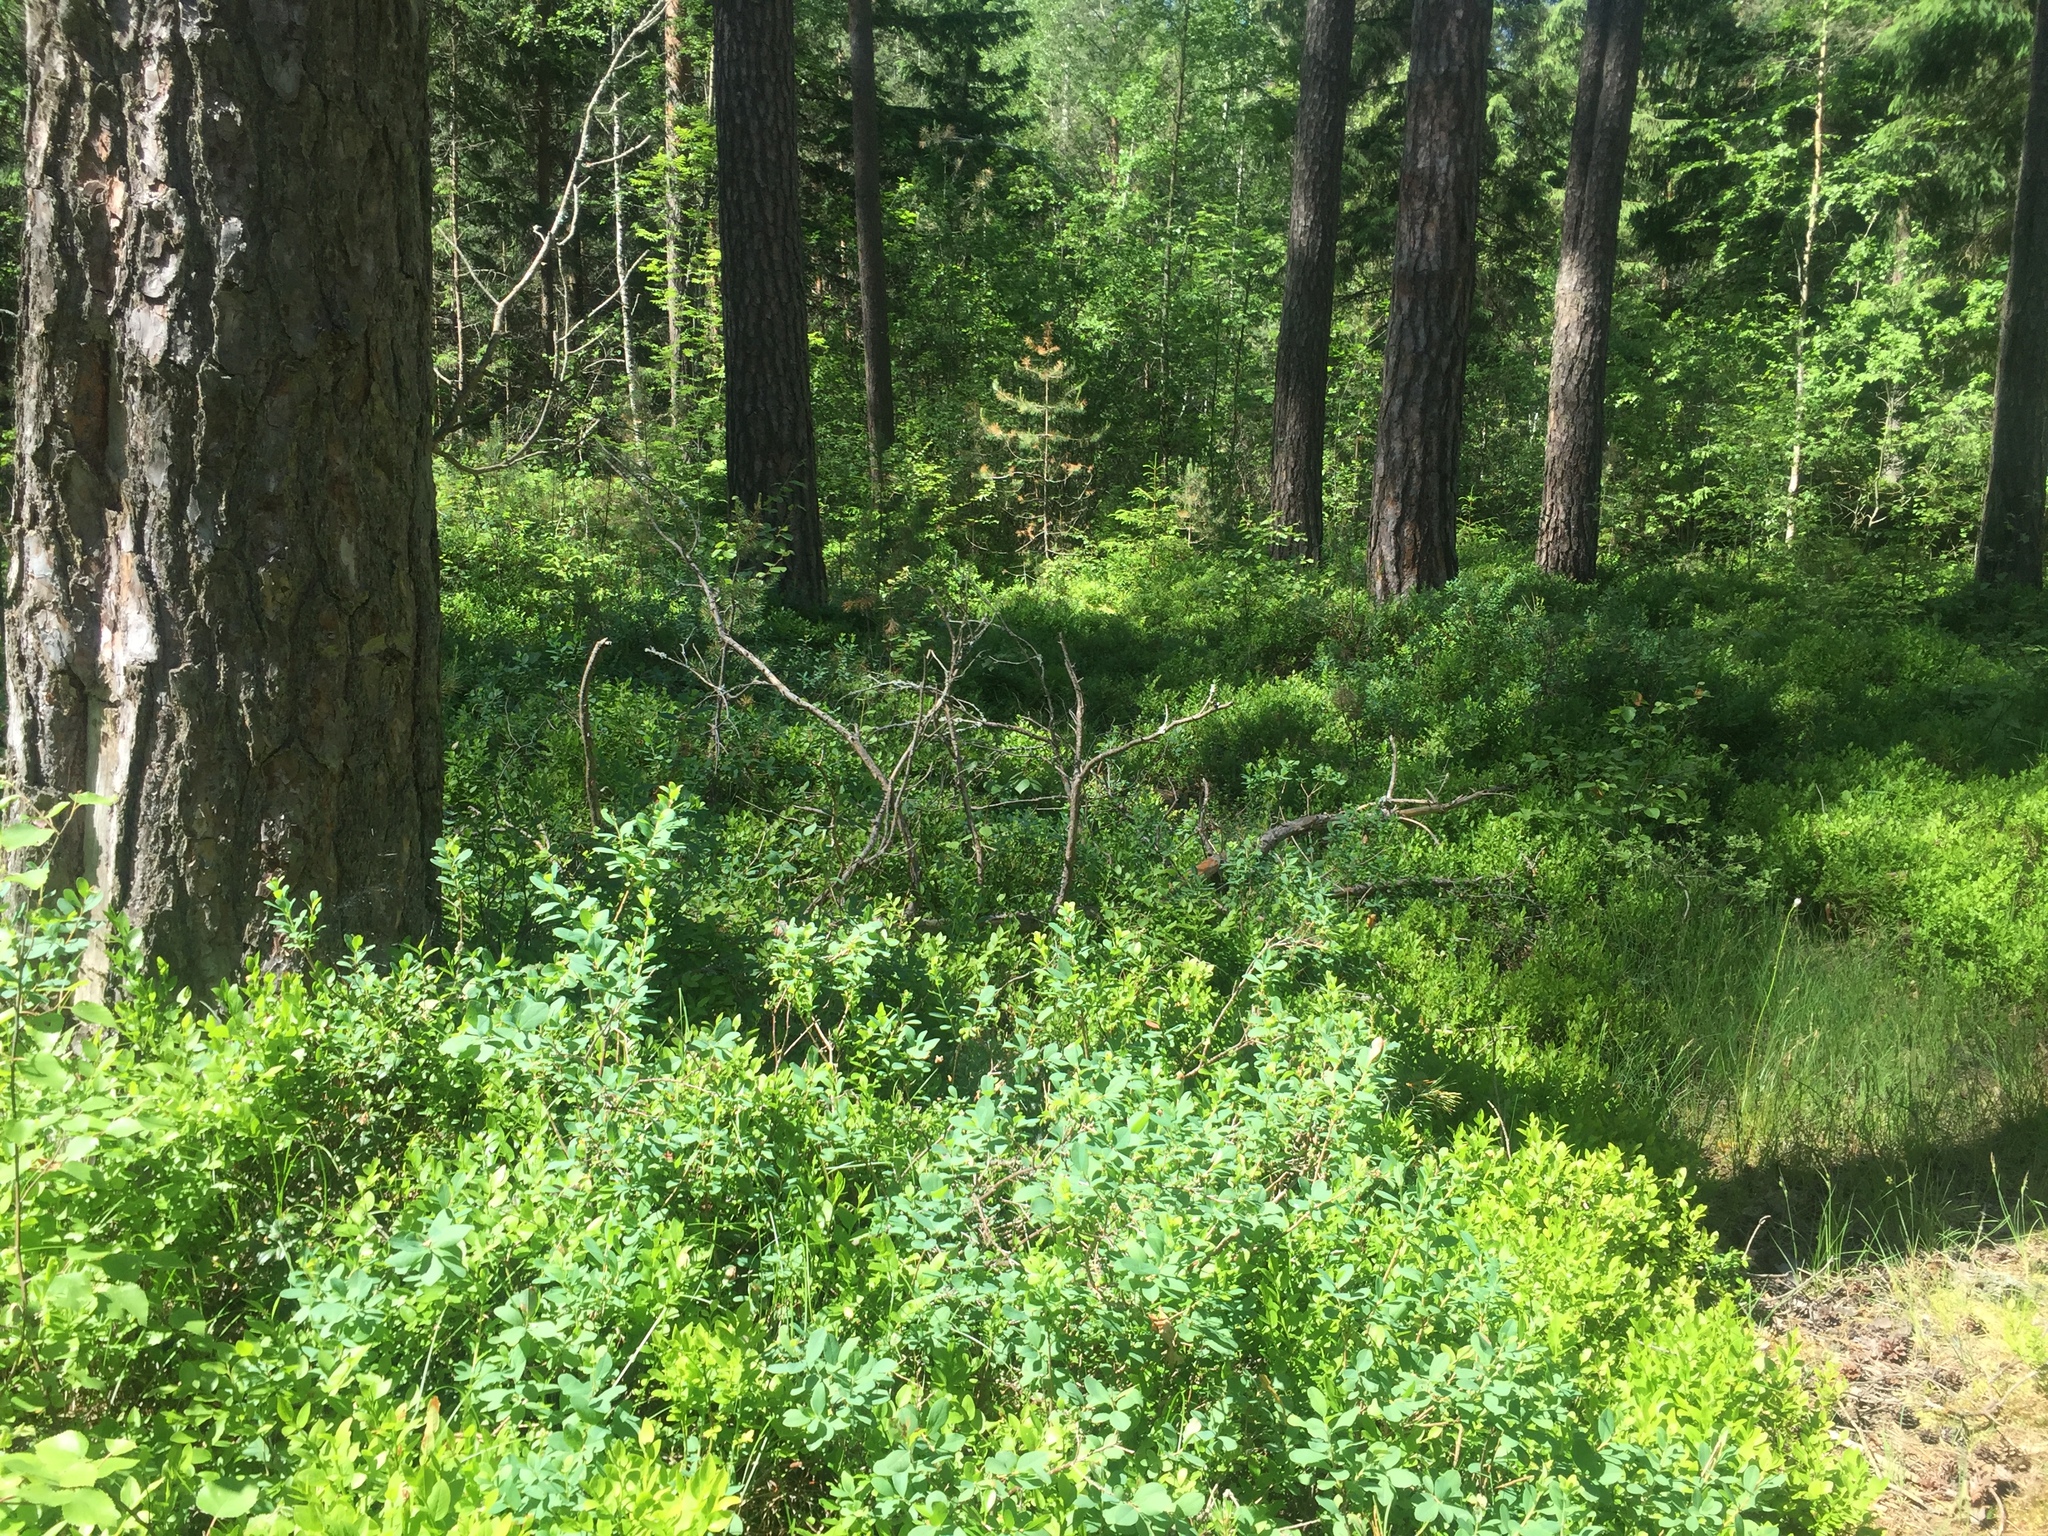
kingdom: Plantae
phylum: Tracheophyta
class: Magnoliopsida
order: Ericales
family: Ericaceae
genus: Vaccinium
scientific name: Vaccinium uliginosum
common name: Bog bilberry
